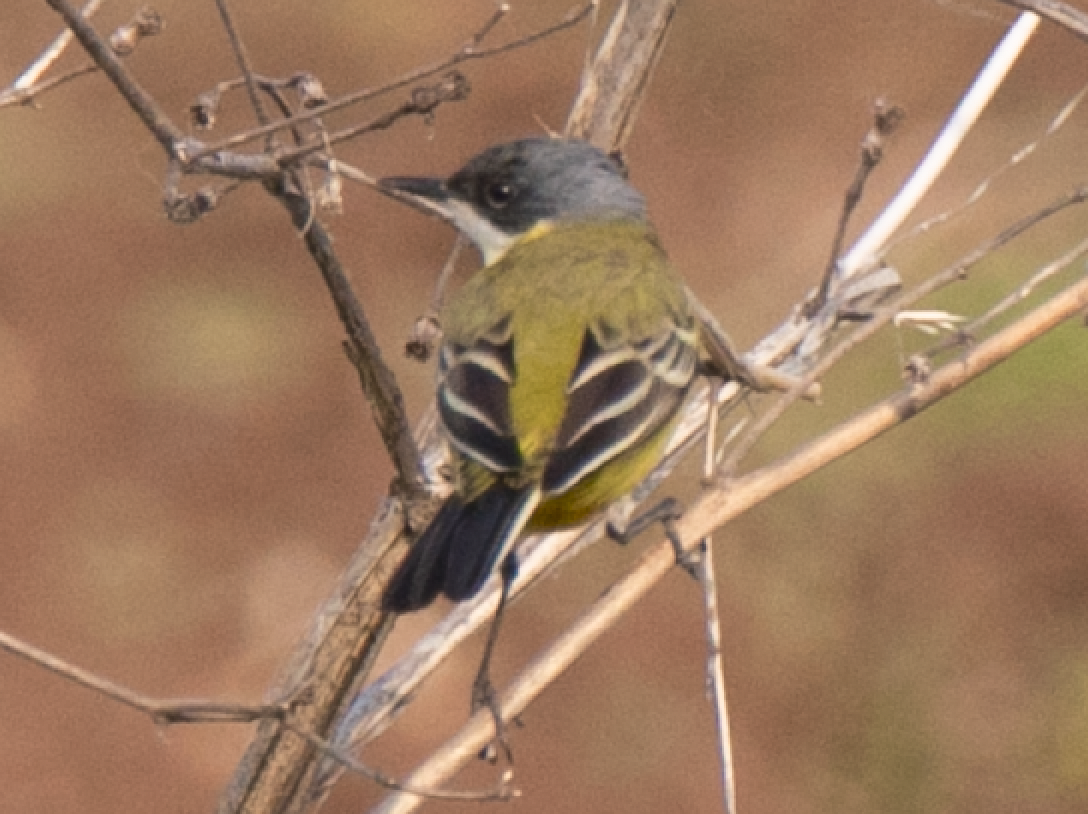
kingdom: Animalia
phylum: Chordata
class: Aves
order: Passeriformes
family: Motacillidae
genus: Motacilla
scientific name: Motacilla flava
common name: Western yellow wagtail
